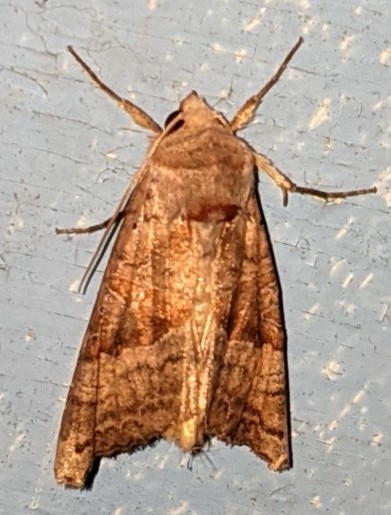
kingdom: Animalia
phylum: Arthropoda
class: Insecta
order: Lepidoptera
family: Noctuidae
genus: Phlogophora
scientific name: Phlogophora periculosa
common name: Brown angle shades
